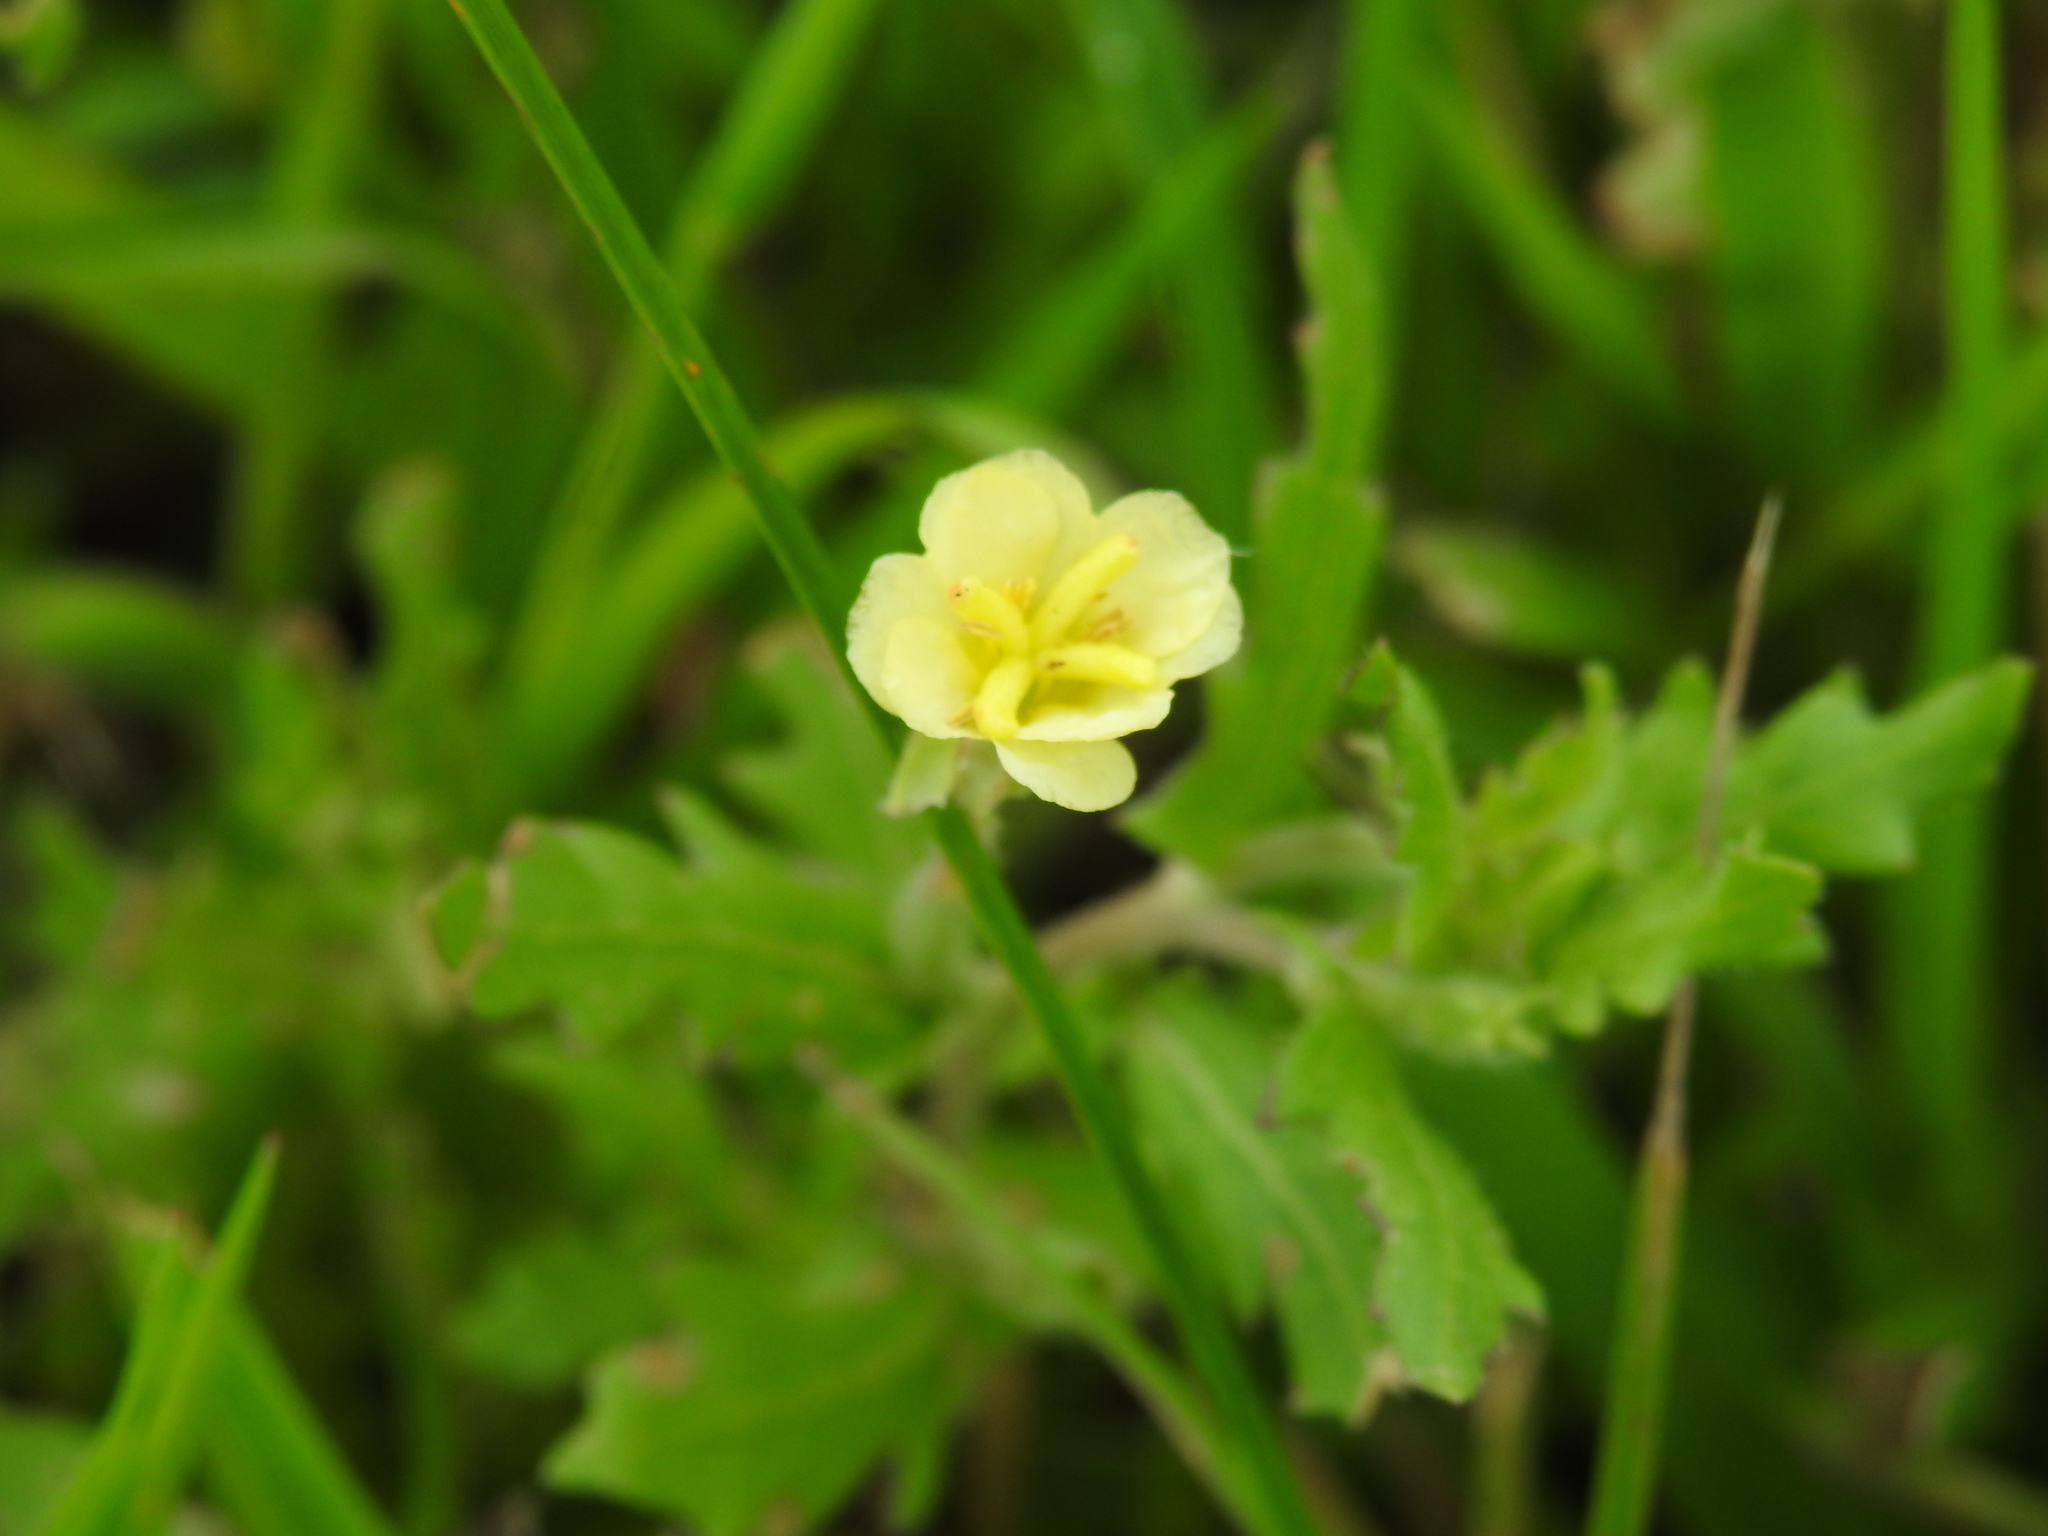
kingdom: Plantae
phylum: Tracheophyta
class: Magnoliopsida
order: Myrtales
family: Onagraceae
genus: Oenothera
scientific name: Oenothera laciniata
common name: Cut-leaved evening-primrose
